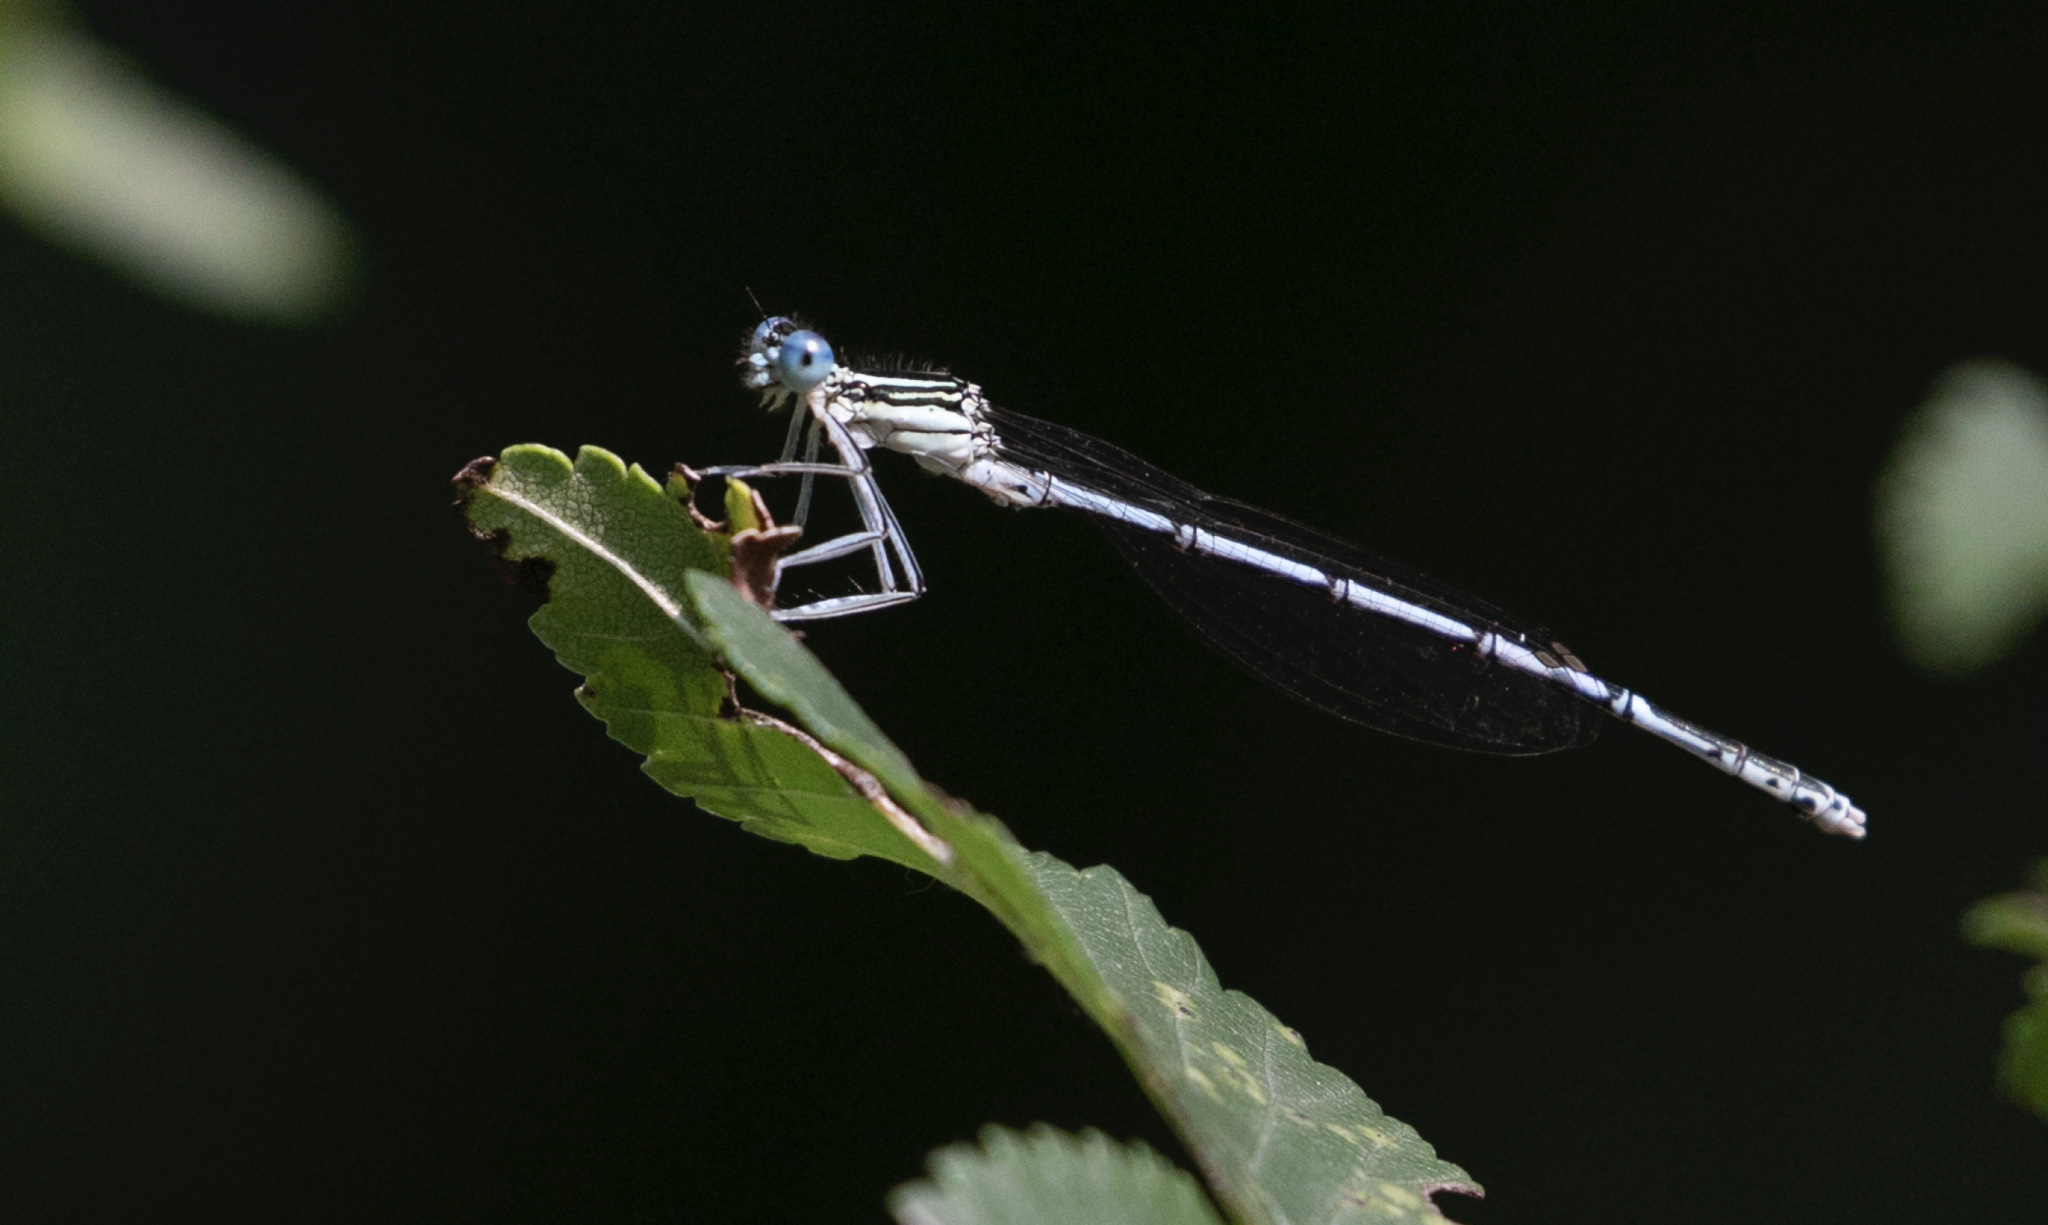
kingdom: Animalia
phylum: Arthropoda
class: Insecta
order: Odonata
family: Platycnemididae
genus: Platycnemis
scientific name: Platycnemis pennipes
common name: White-legged damselfly
